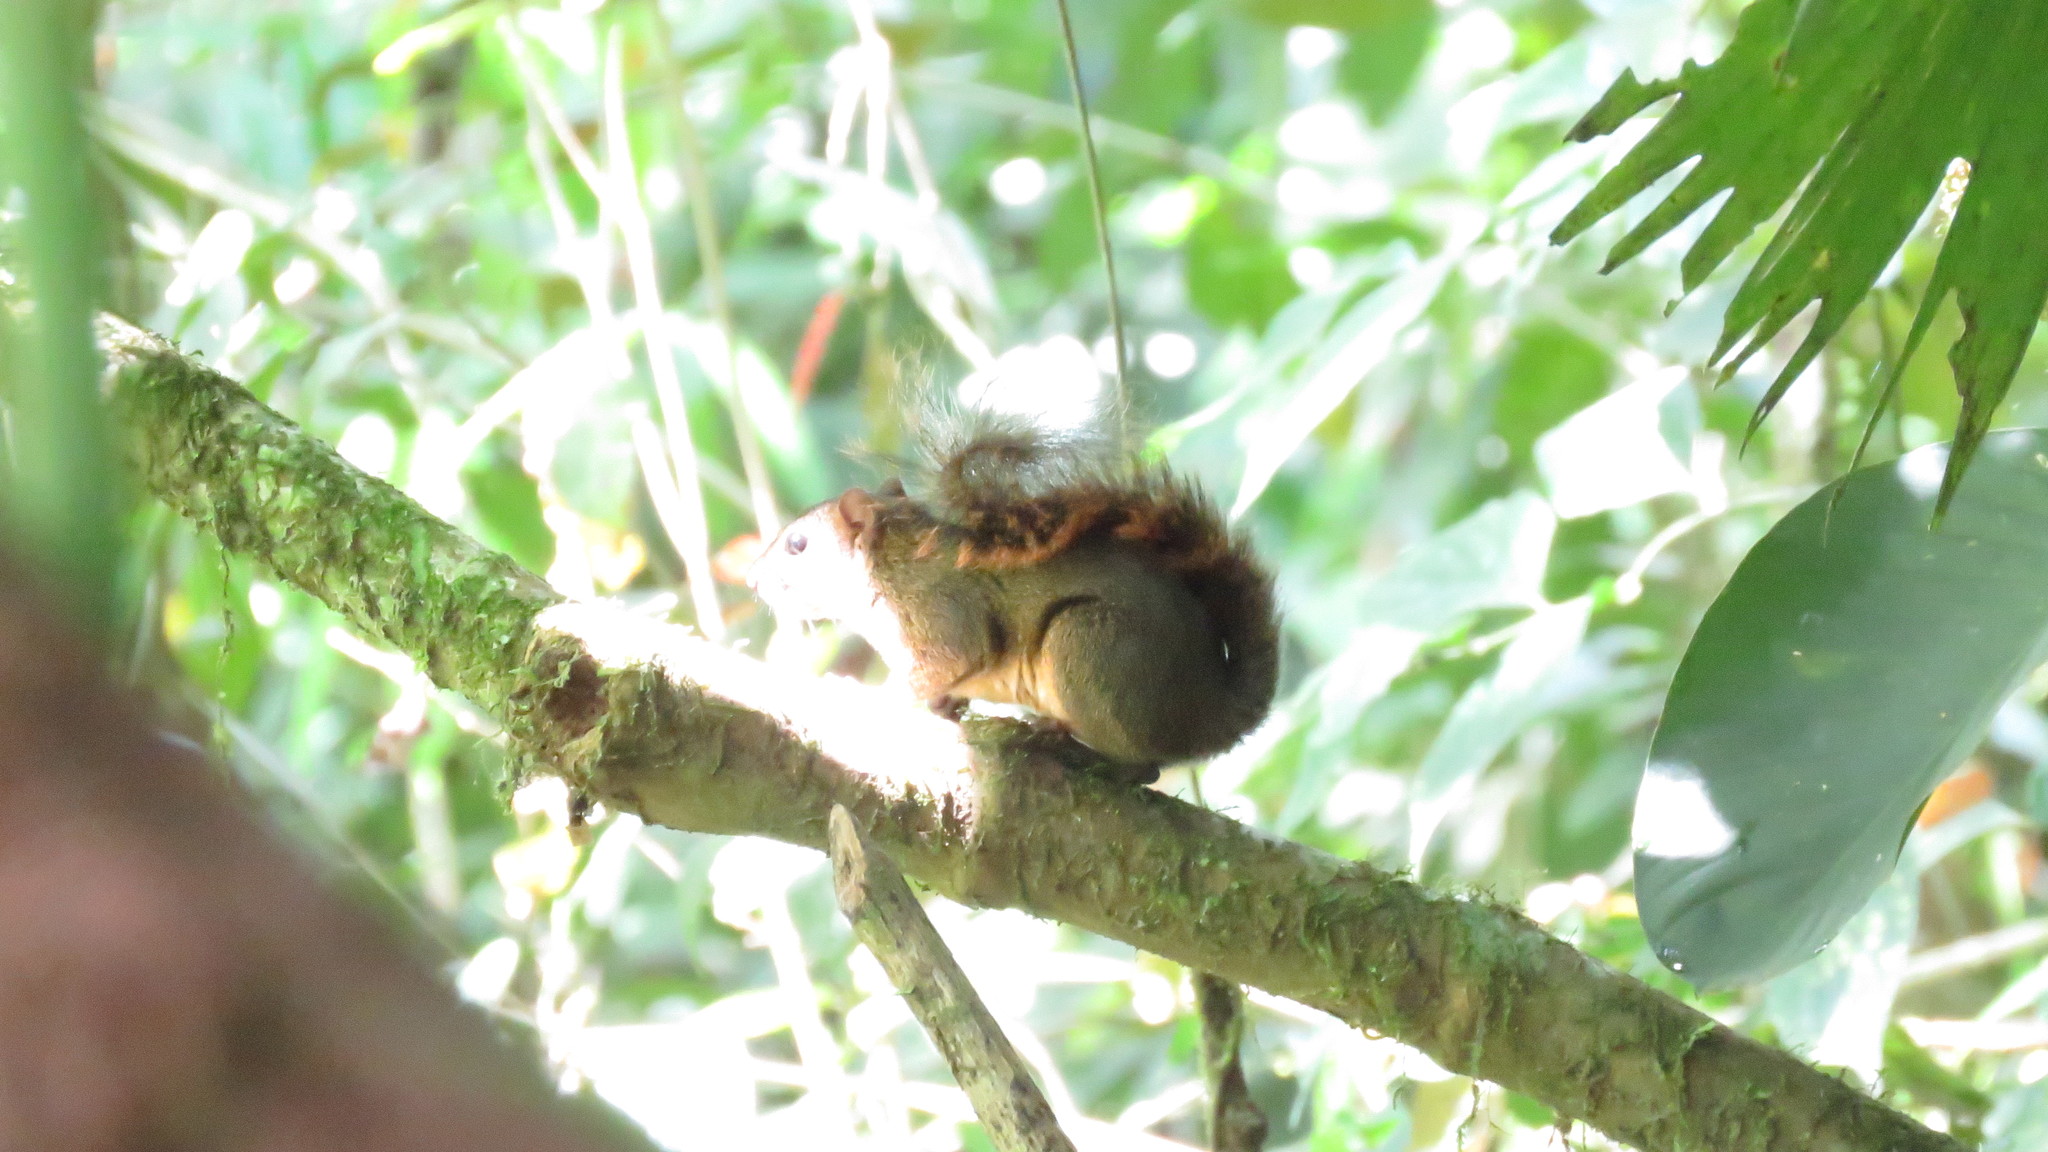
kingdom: Animalia
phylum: Chordata
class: Mammalia
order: Rodentia
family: Sciuridae
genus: Sciurus
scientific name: Sciurus granatensis
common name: Red-tailed squirrel
